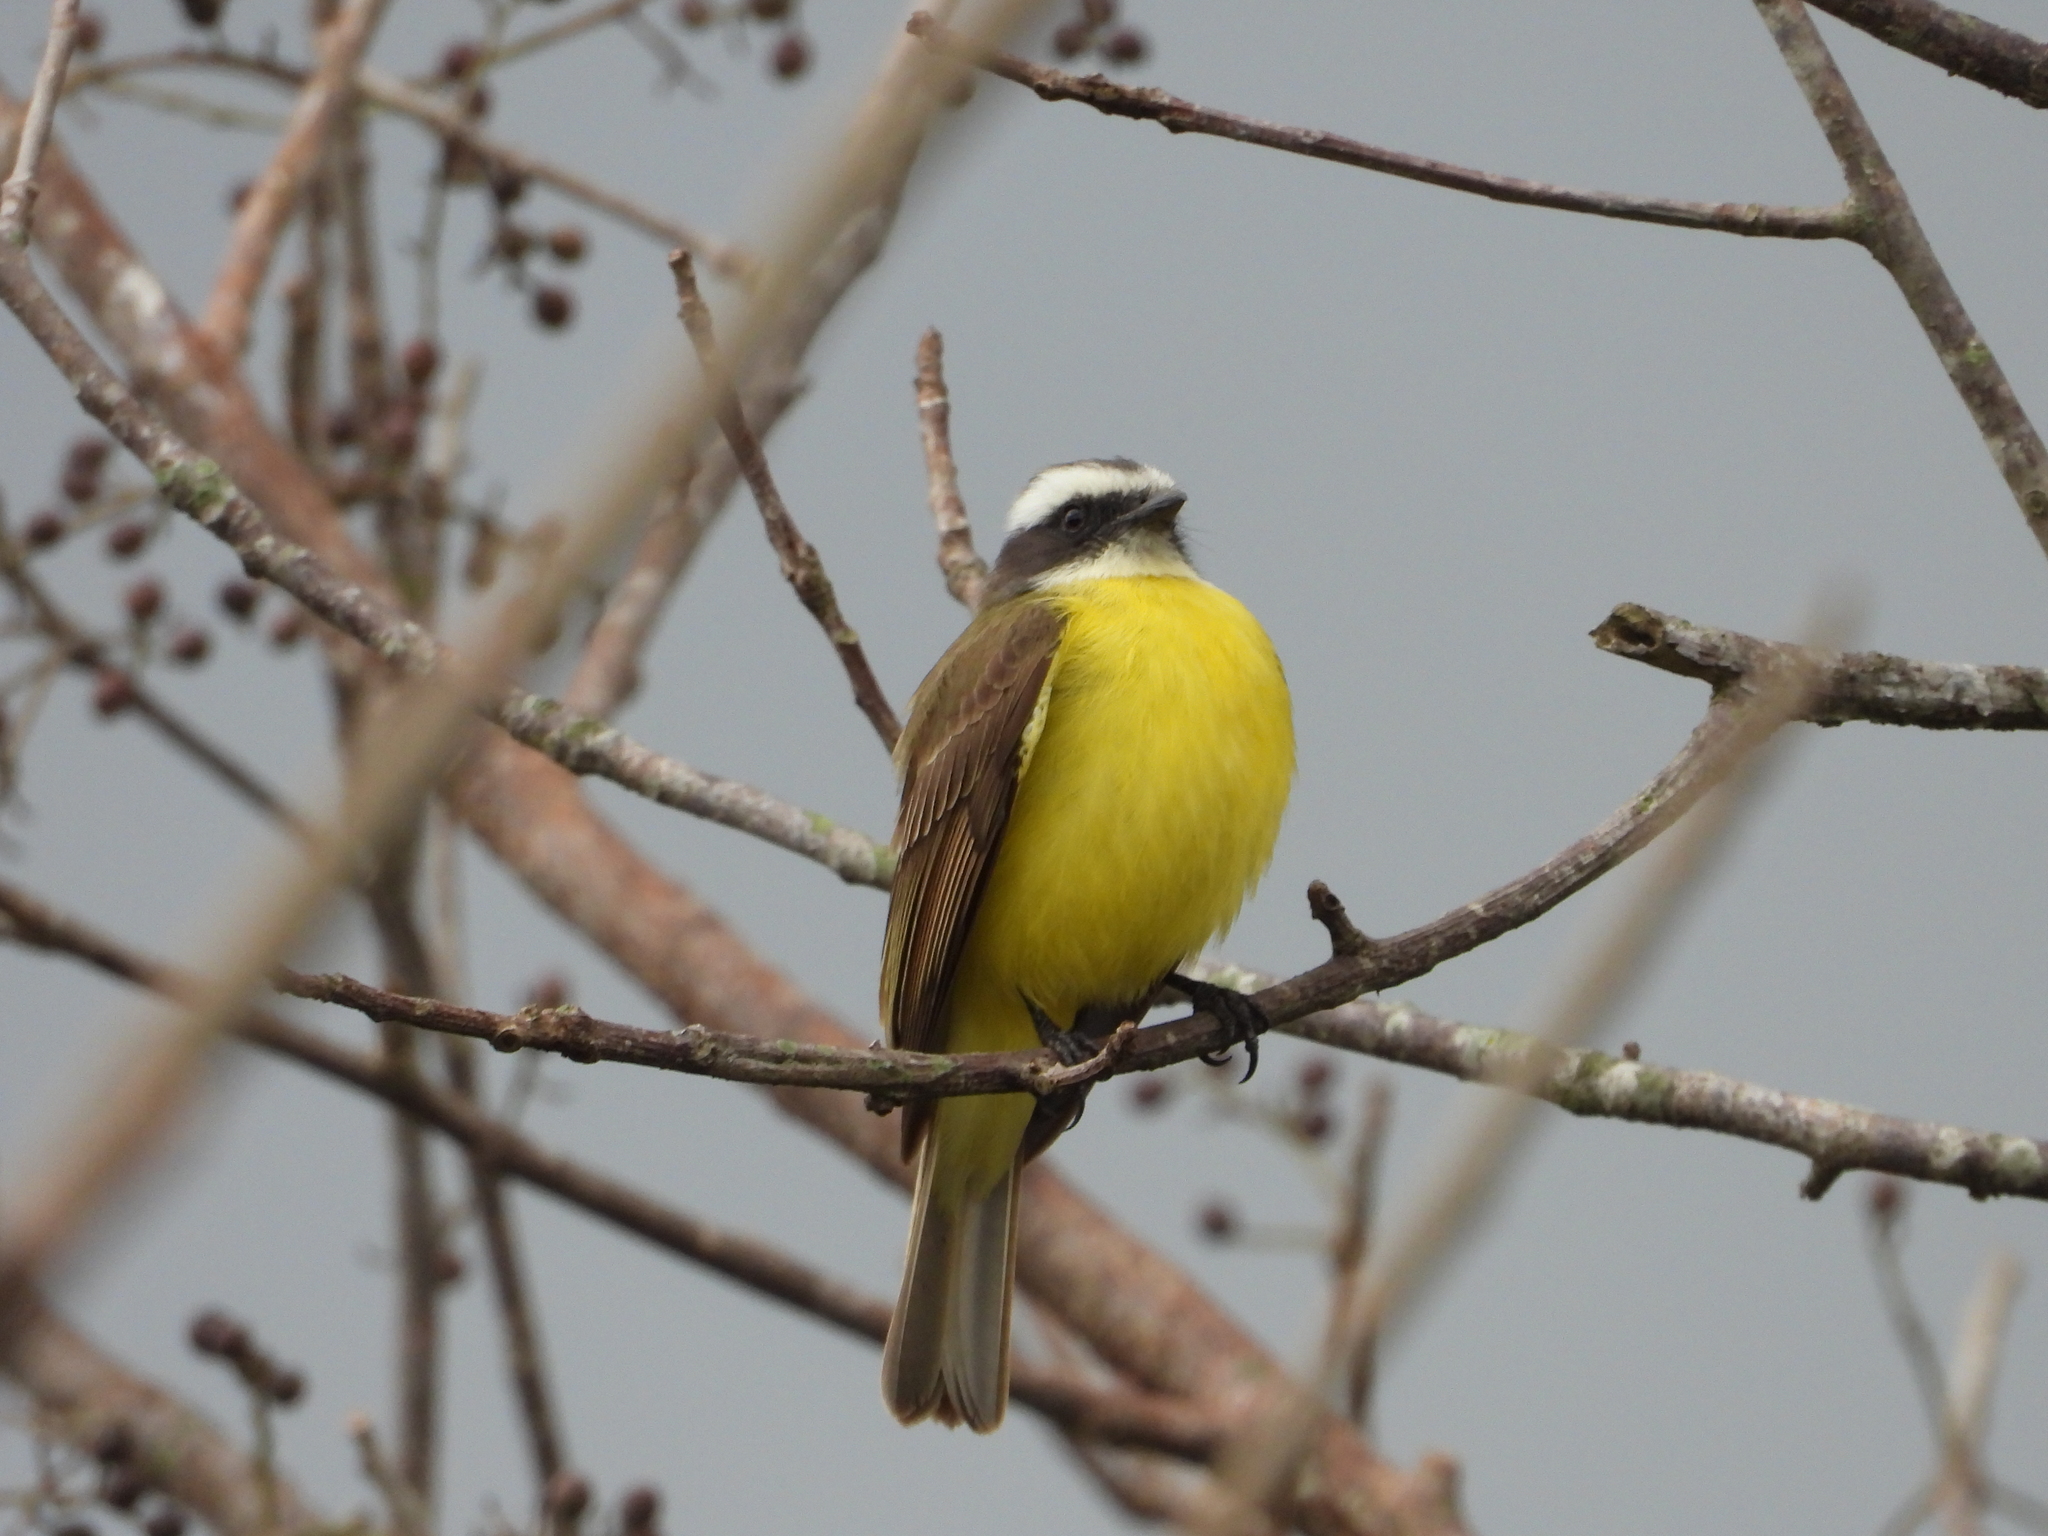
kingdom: Animalia
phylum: Chordata
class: Aves
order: Passeriformes
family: Tyrannidae
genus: Myiozetetes
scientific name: Myiozetetes similis
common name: Social flycatcher
